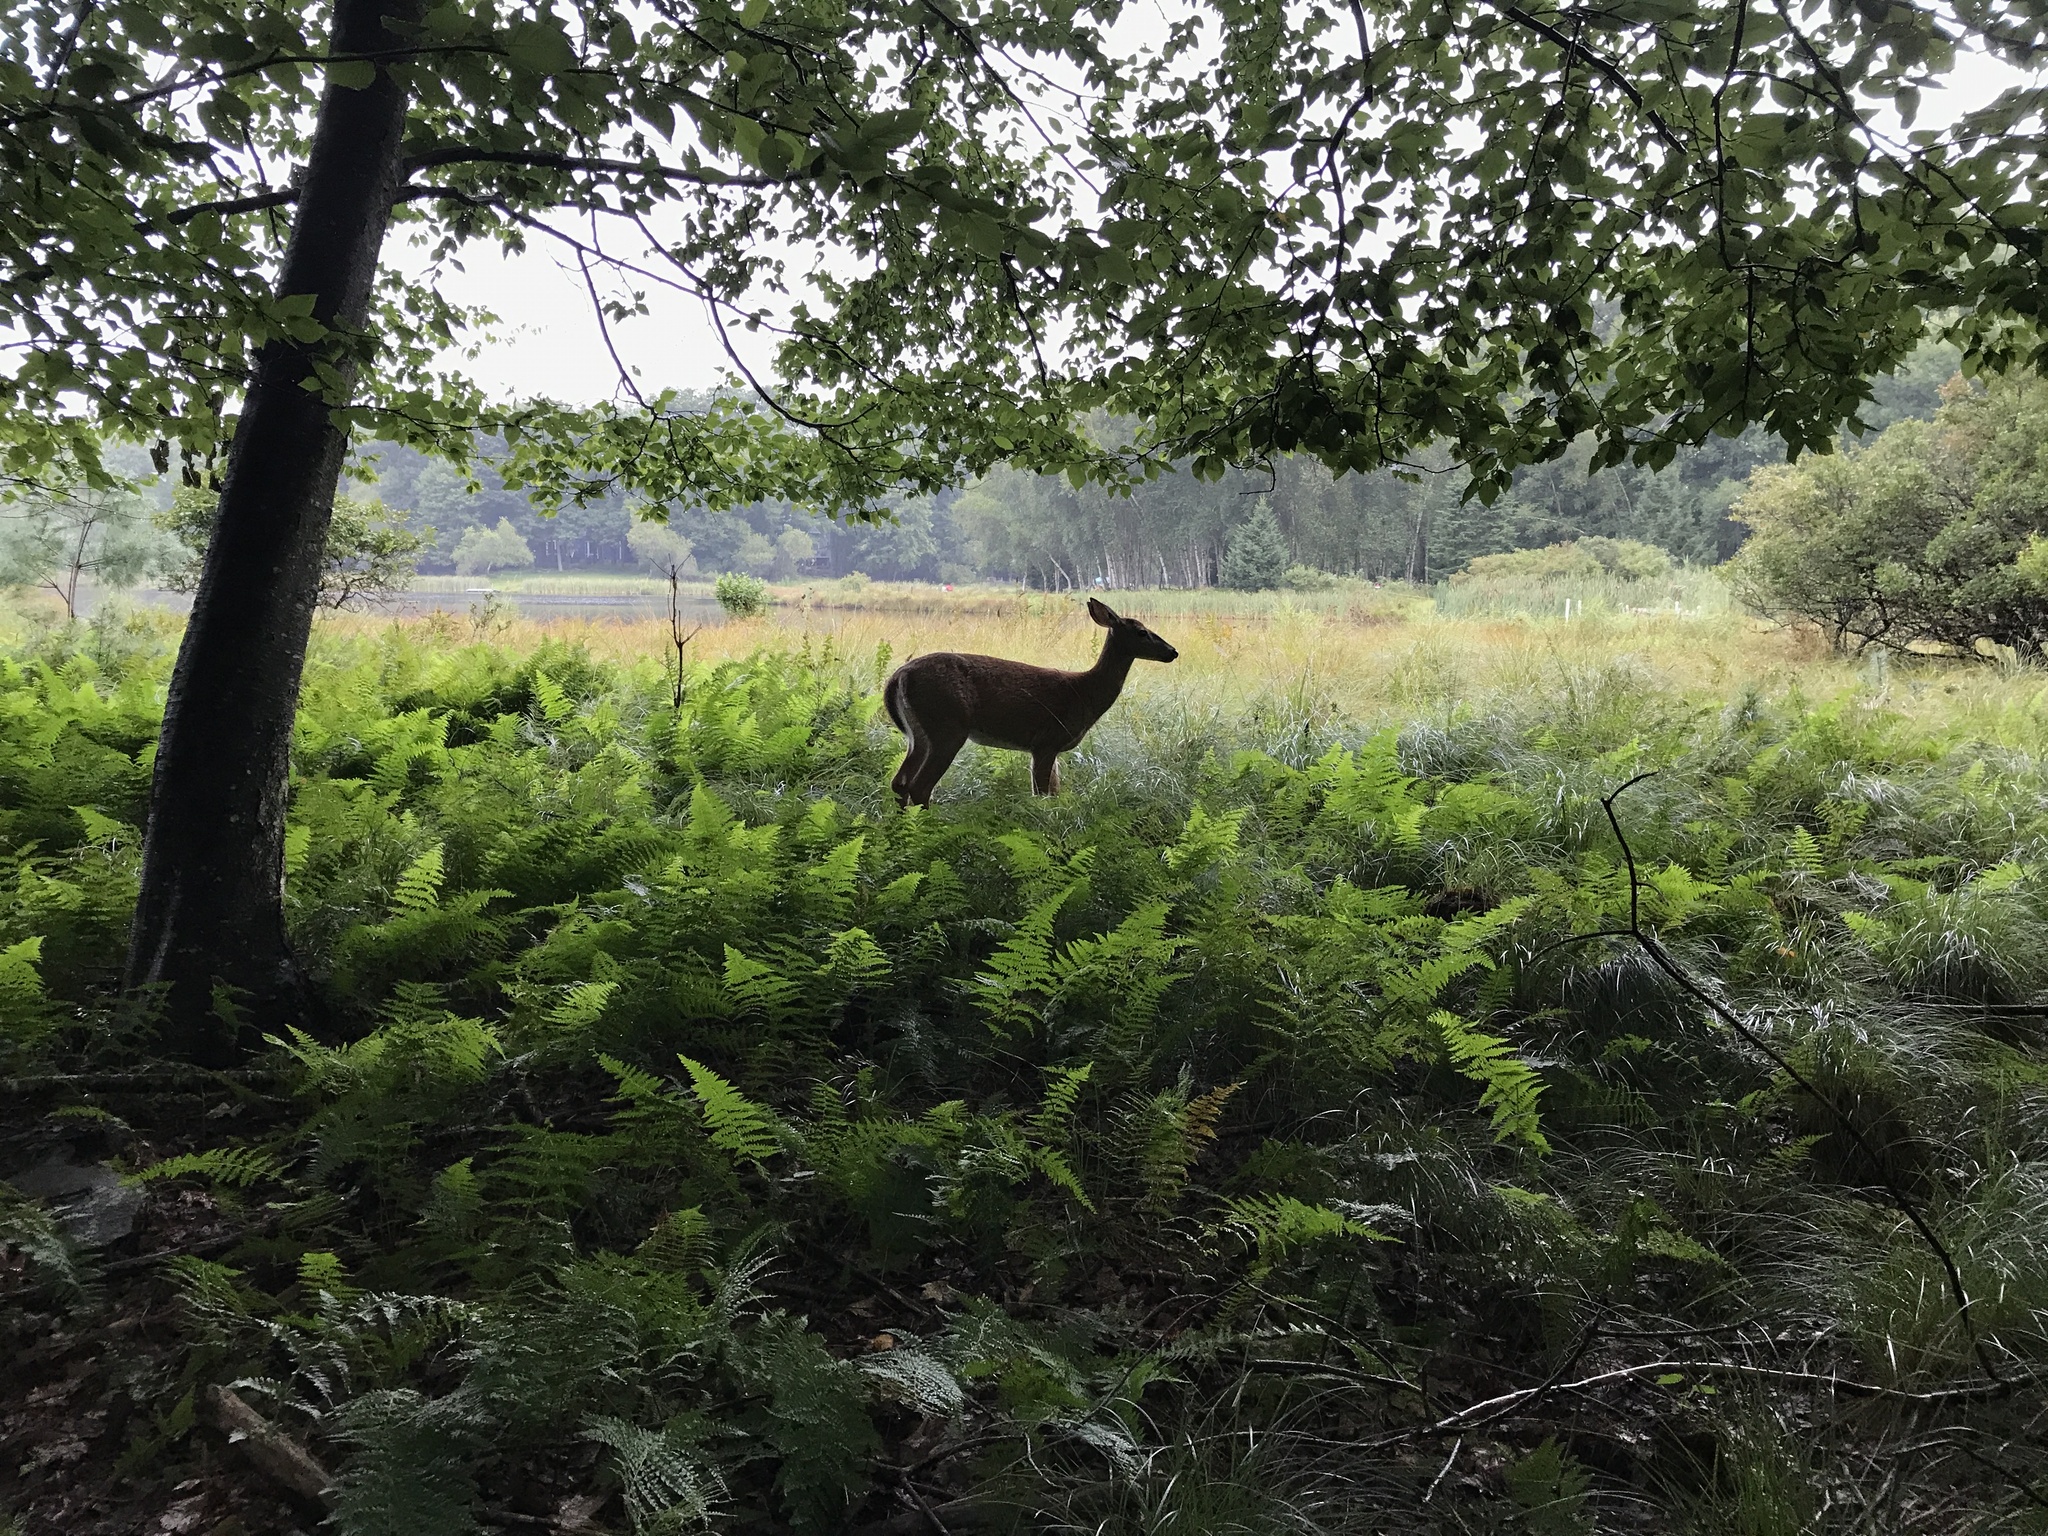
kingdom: Animalia
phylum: Chordata
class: Mammalia
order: Artiodactyla
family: Cervidae
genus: Odocoileus
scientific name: Odocoileus virginianus
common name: White-tailed deer
